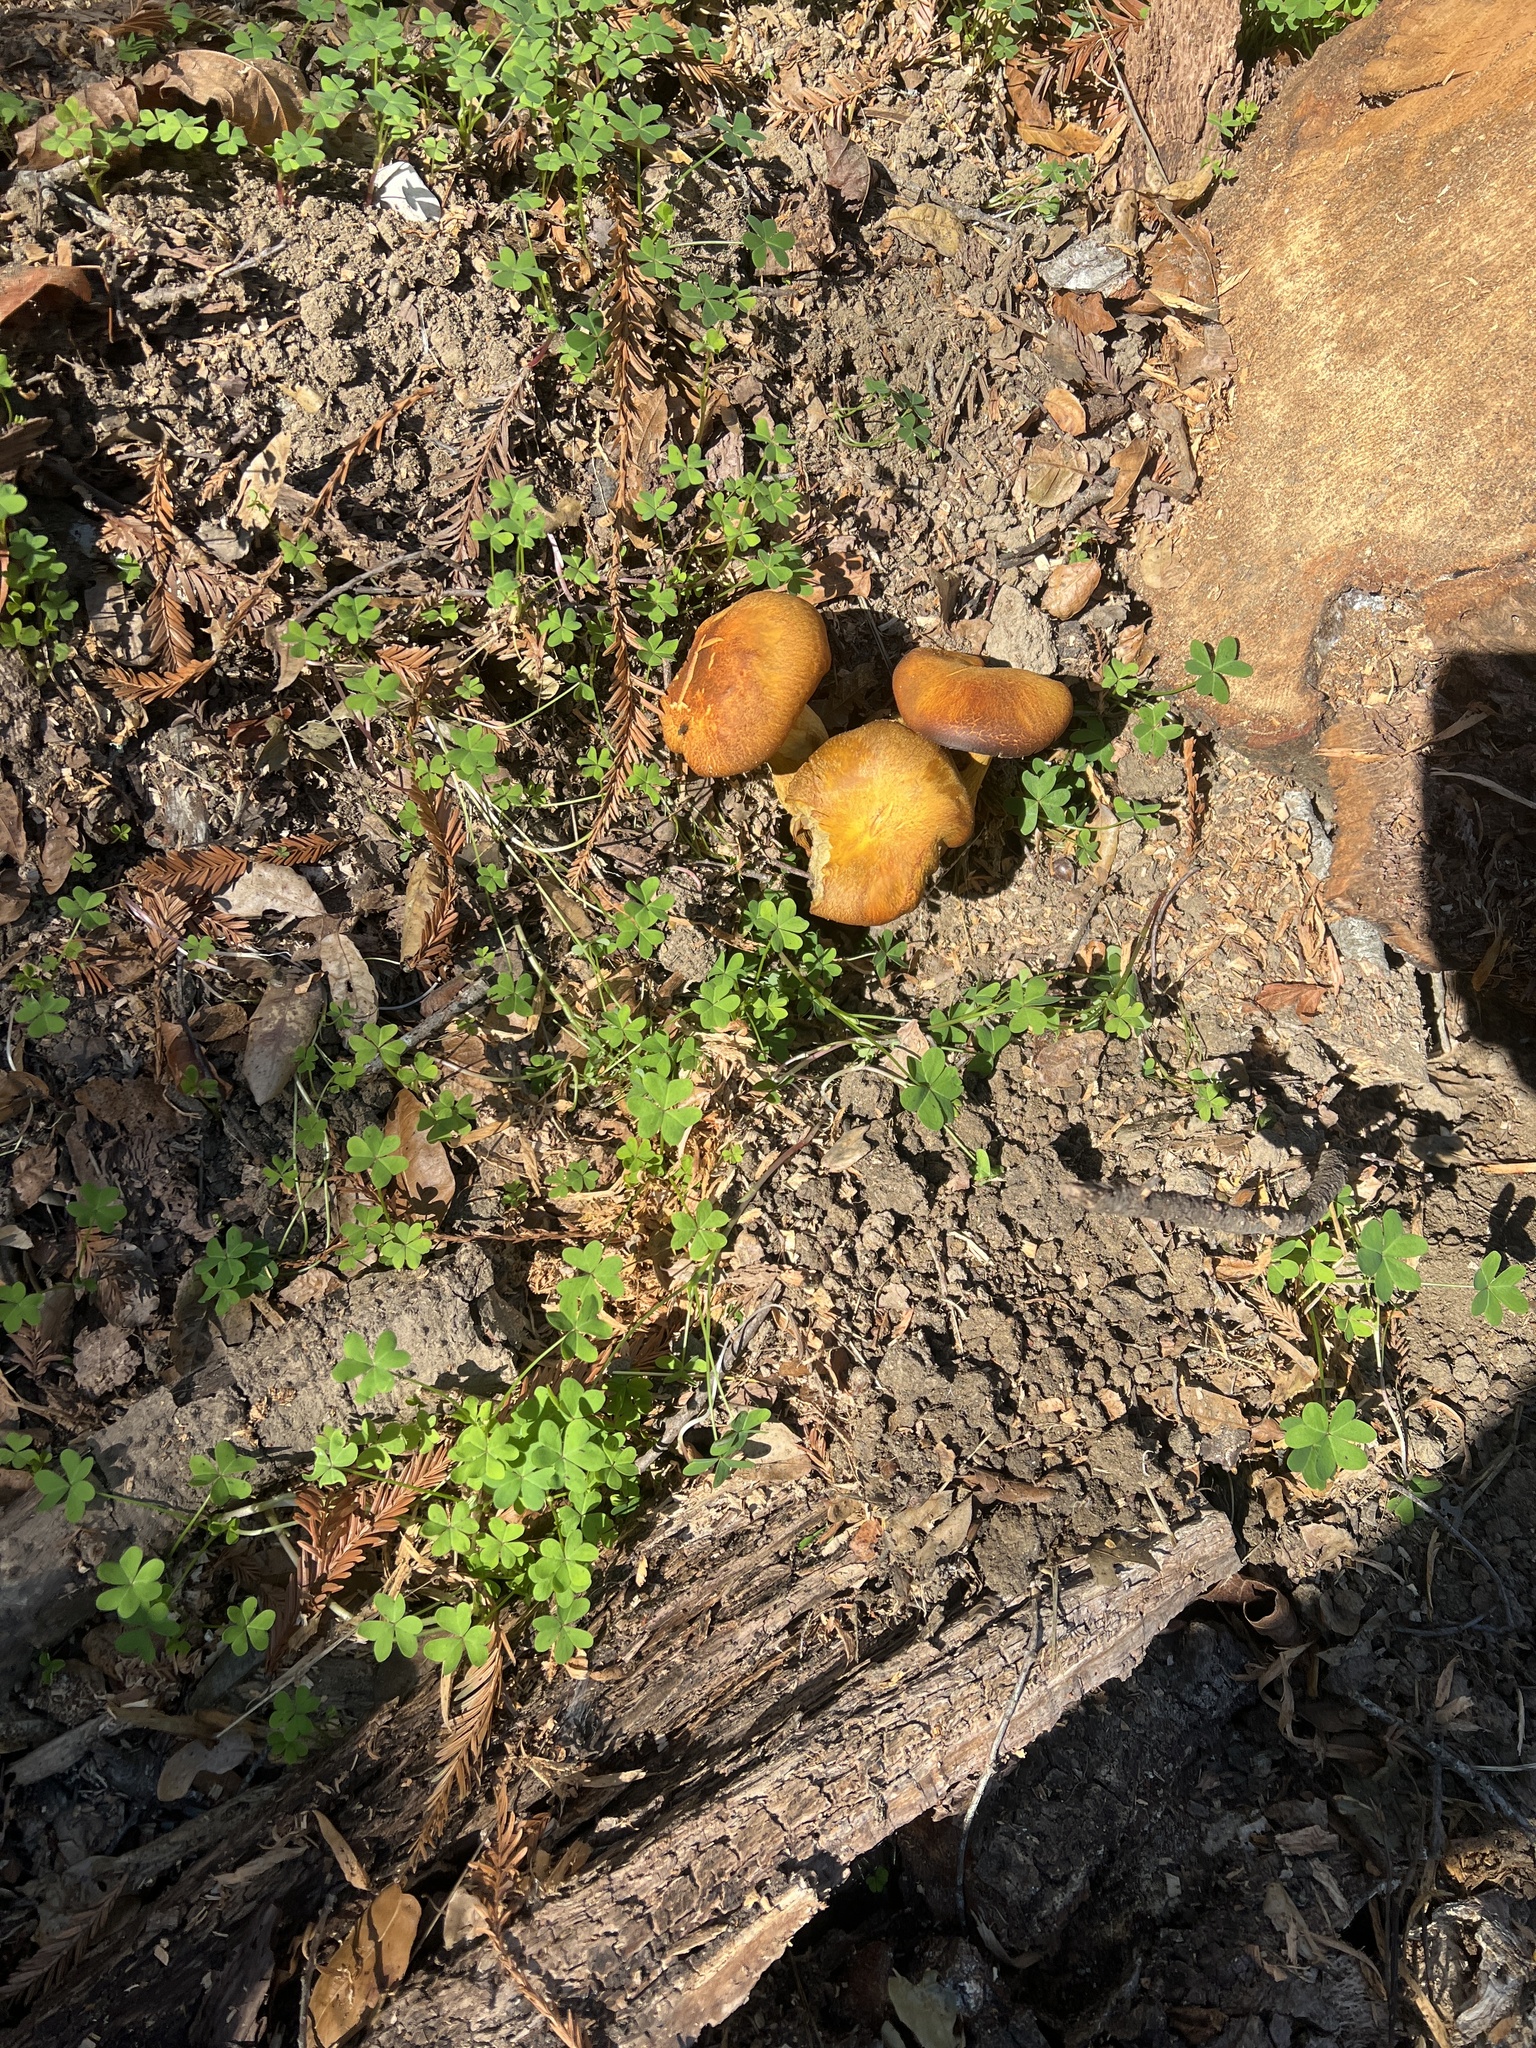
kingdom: Fungi
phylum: Basidiomycota
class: Agaricomycetes
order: Agaricales
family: Omphalotaceae
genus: Omphalotus
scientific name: Omphalotus olivascens
